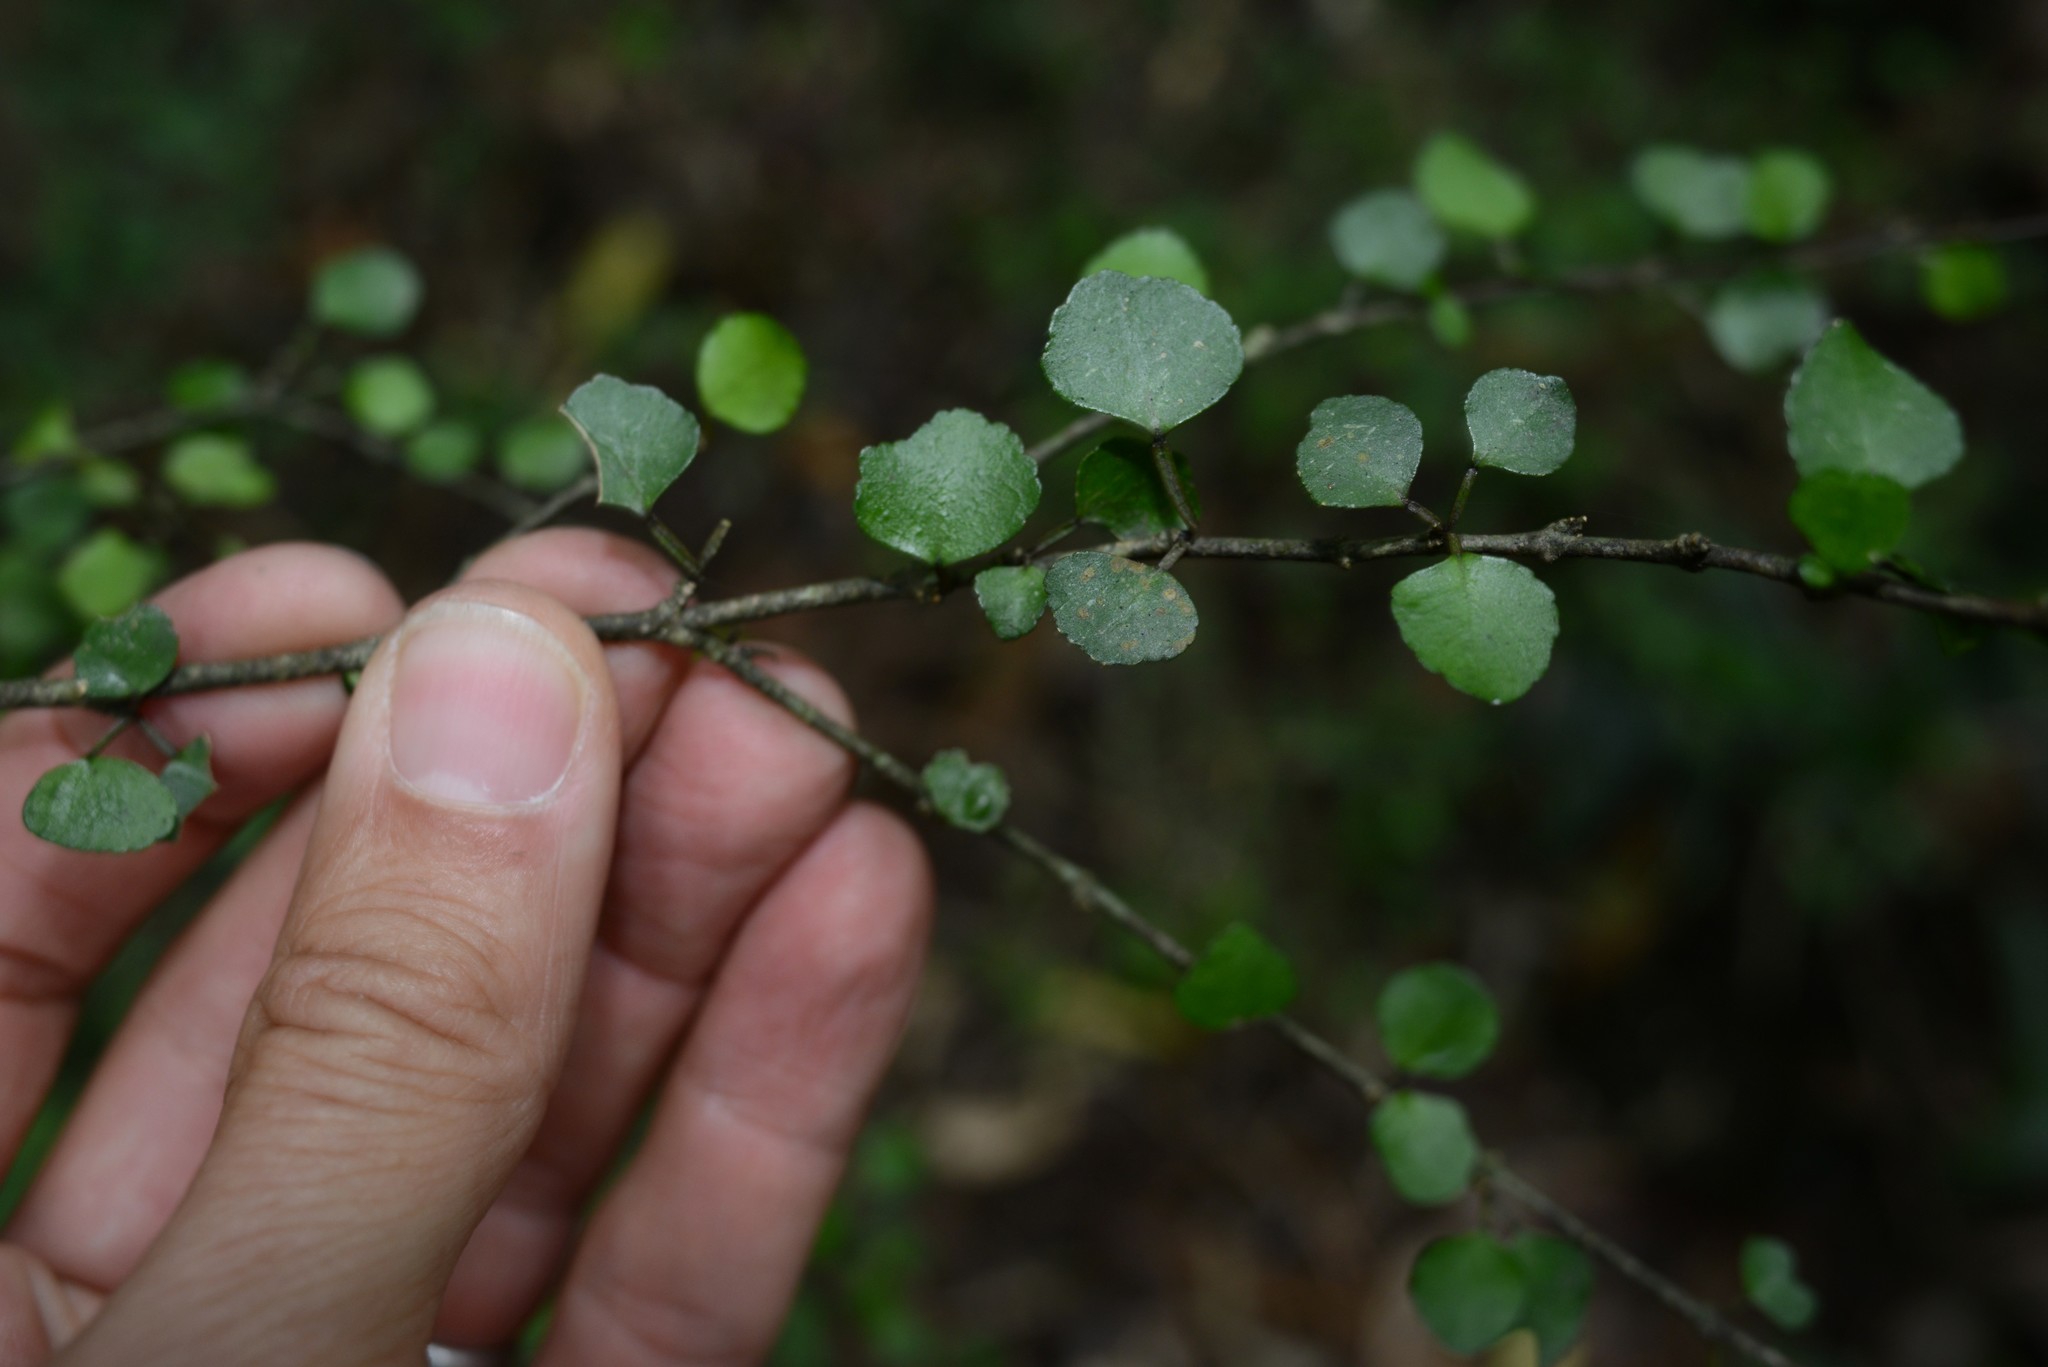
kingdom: Plantae
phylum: Tracheophyta
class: Magnoliopsida
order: Sapindales
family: Rutaceae
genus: Melicope
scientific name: Melicope simplex
